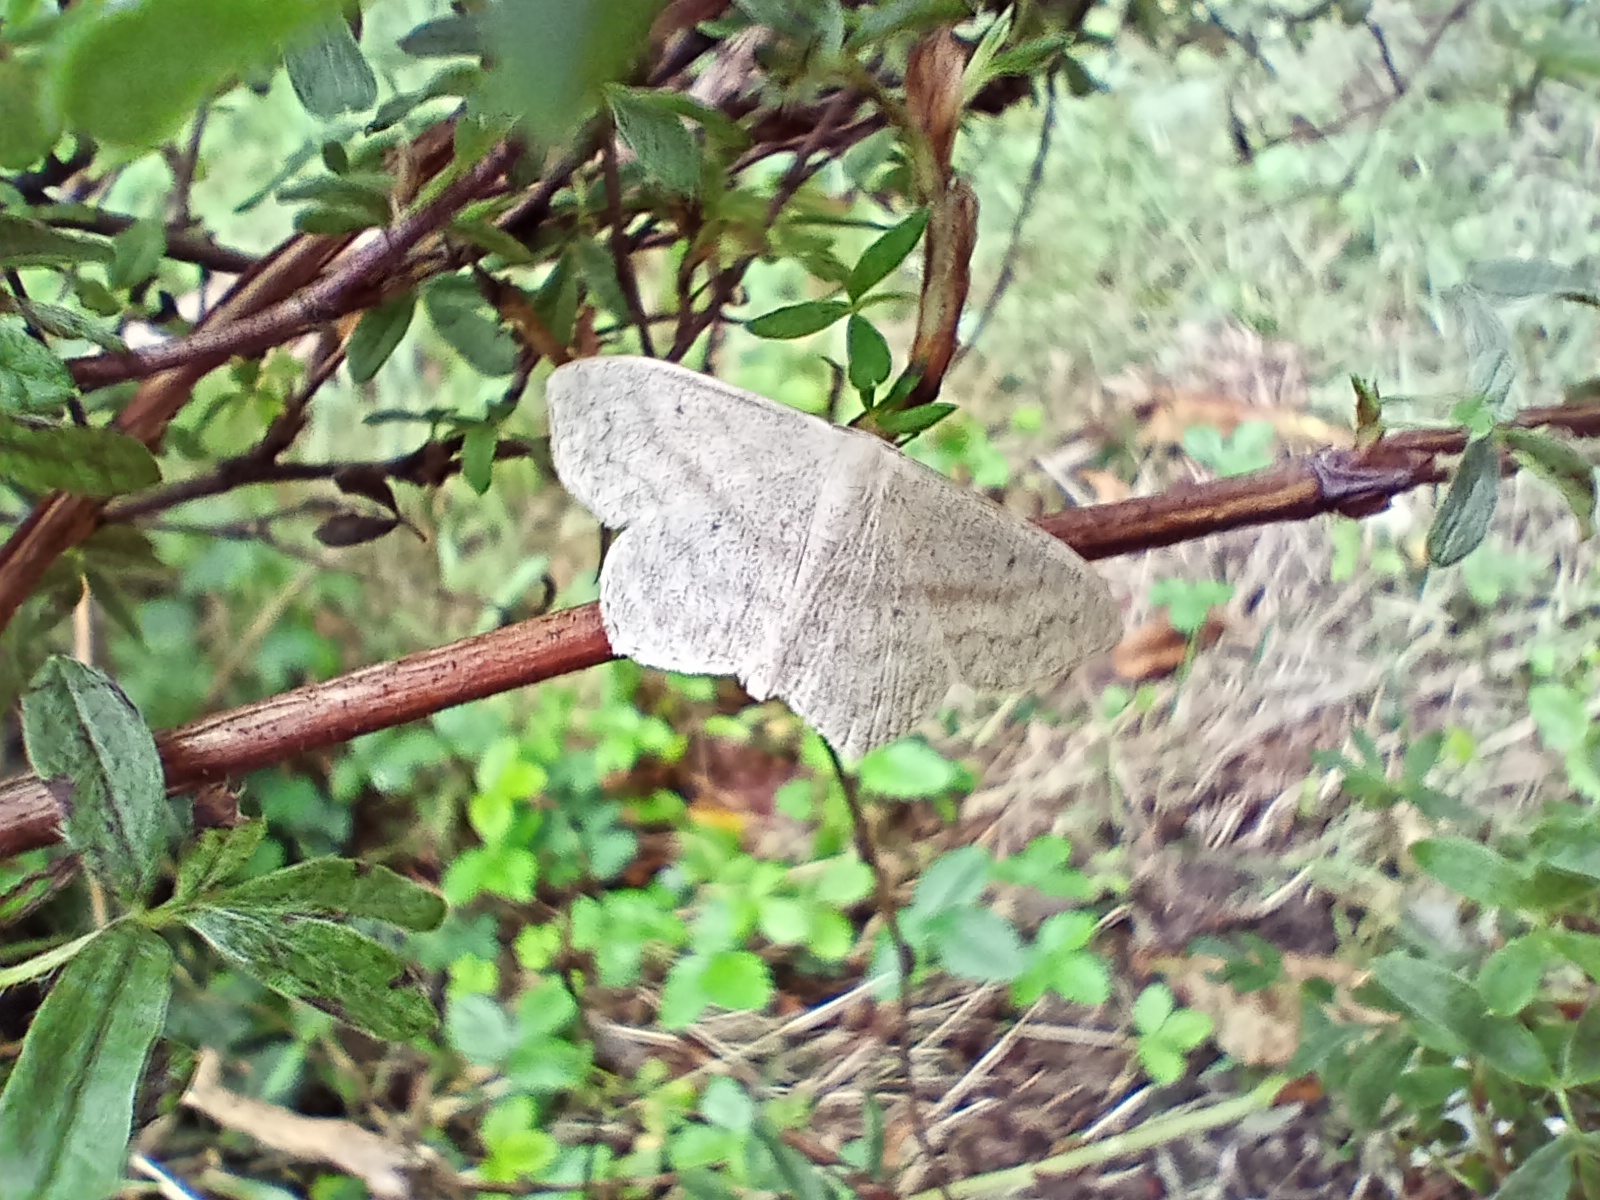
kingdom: Animalia
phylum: Arthropoda
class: Insecta
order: Lepidoptera
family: Geometridae
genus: Scopula
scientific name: Scopula nigropunctata
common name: Sub-angled wave
